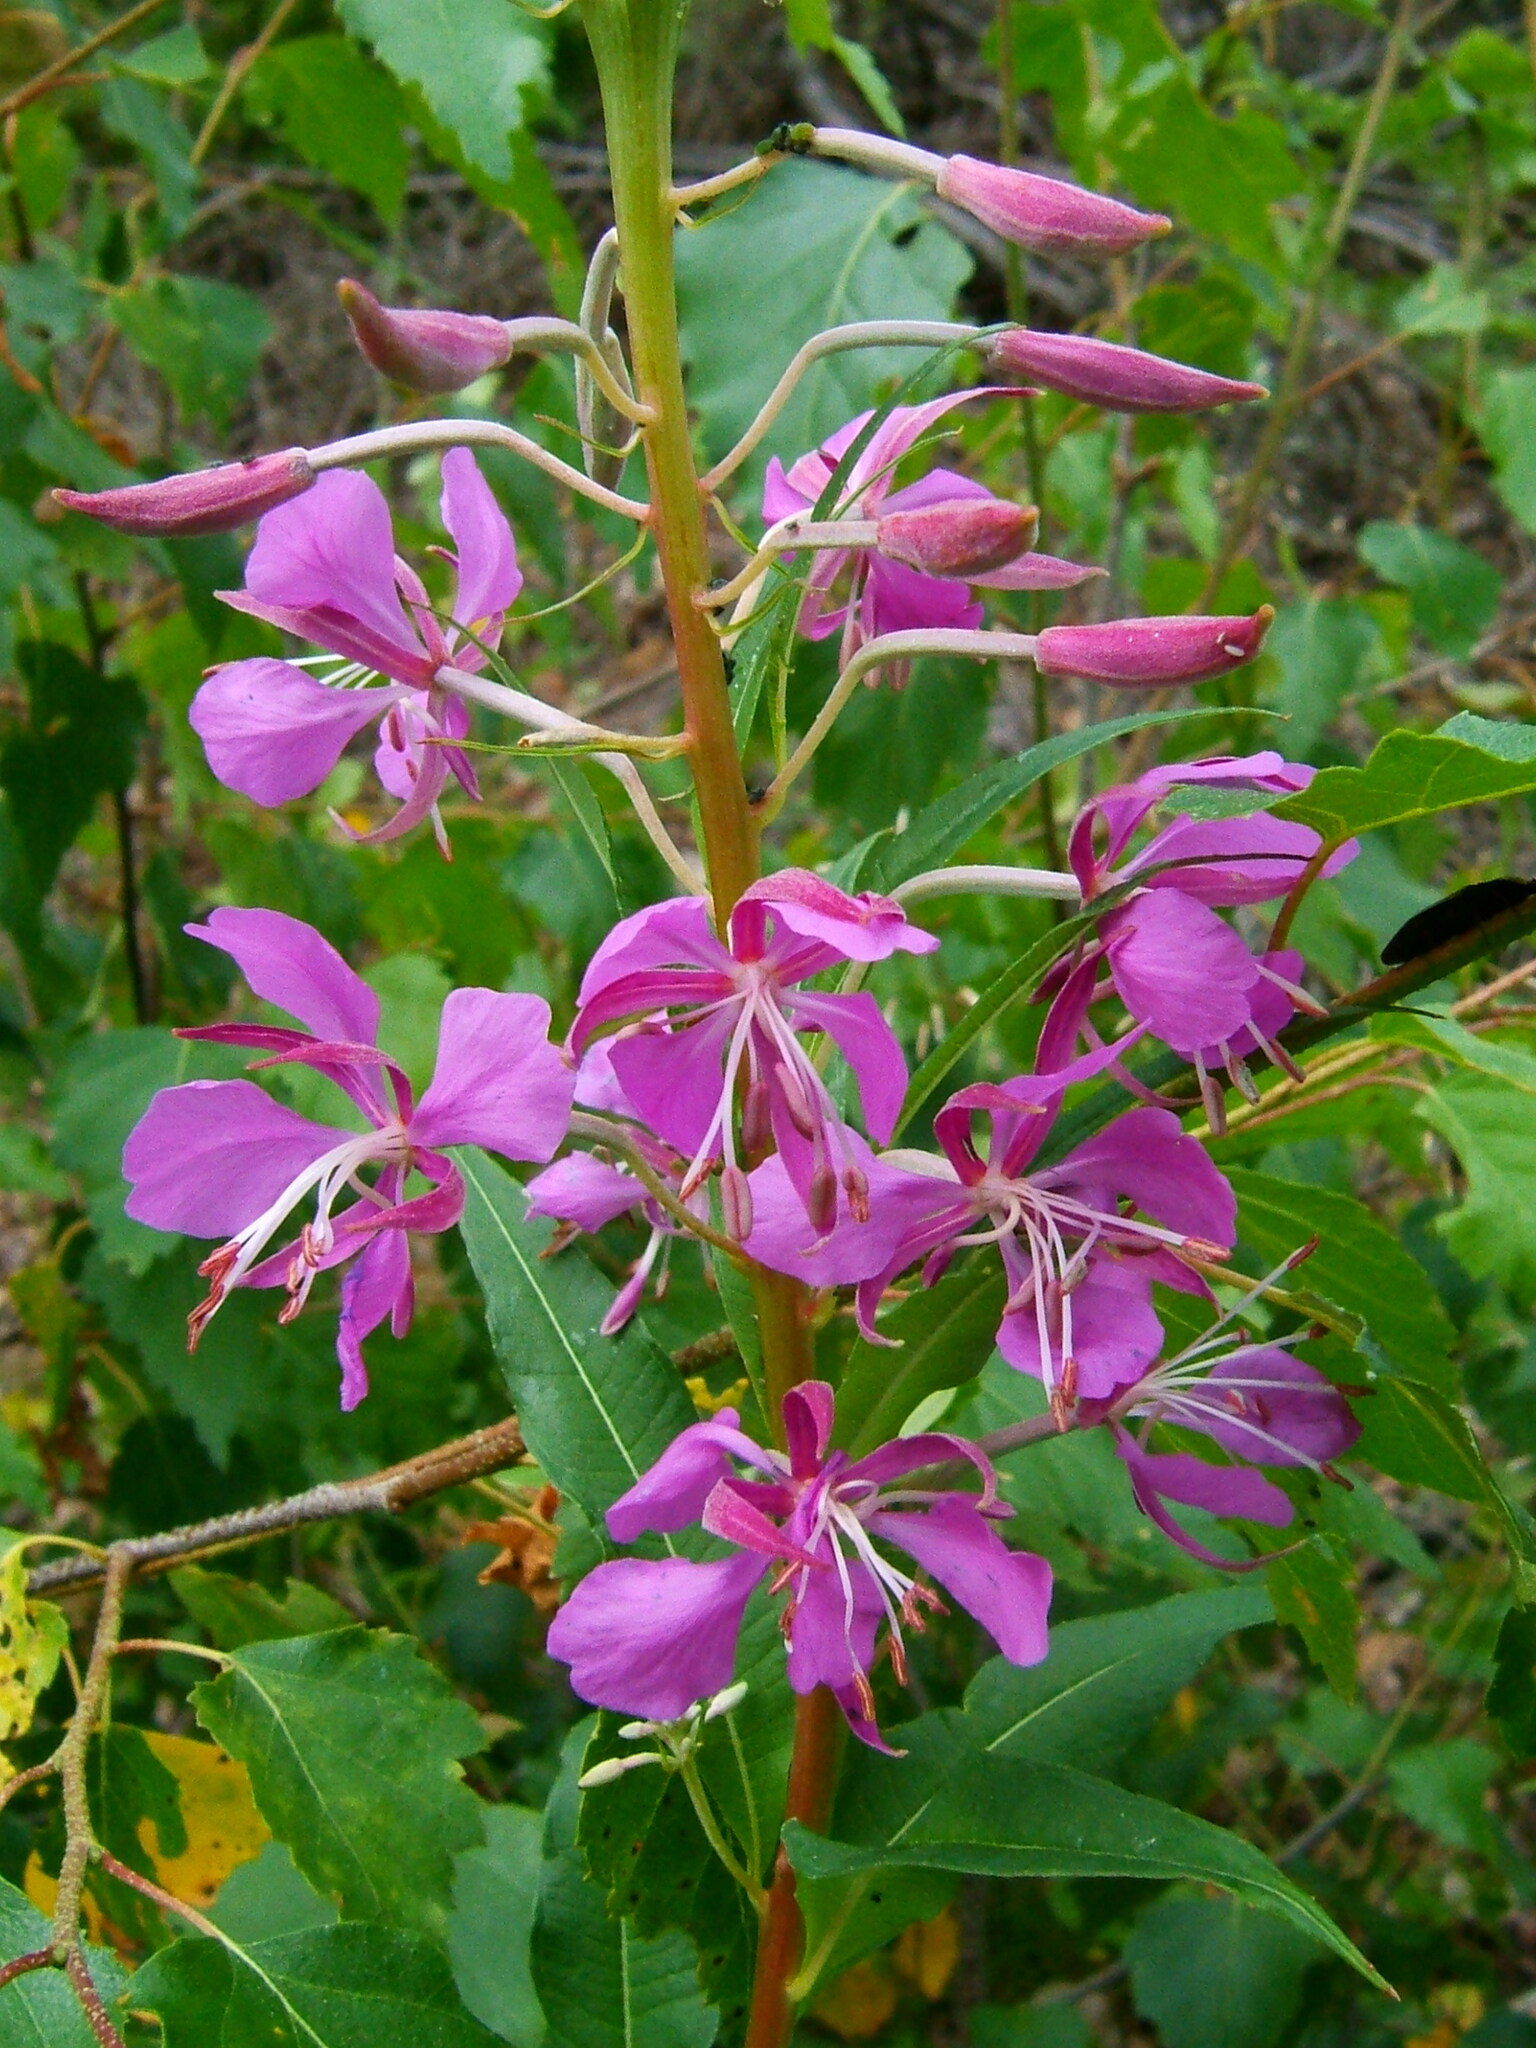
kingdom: Plantae
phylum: Tracheophyta
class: Magnoliopsida
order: Myrtales
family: Onagraceae
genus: Chamaenerion
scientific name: Chamaenerion angustifolium
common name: Fireweed
